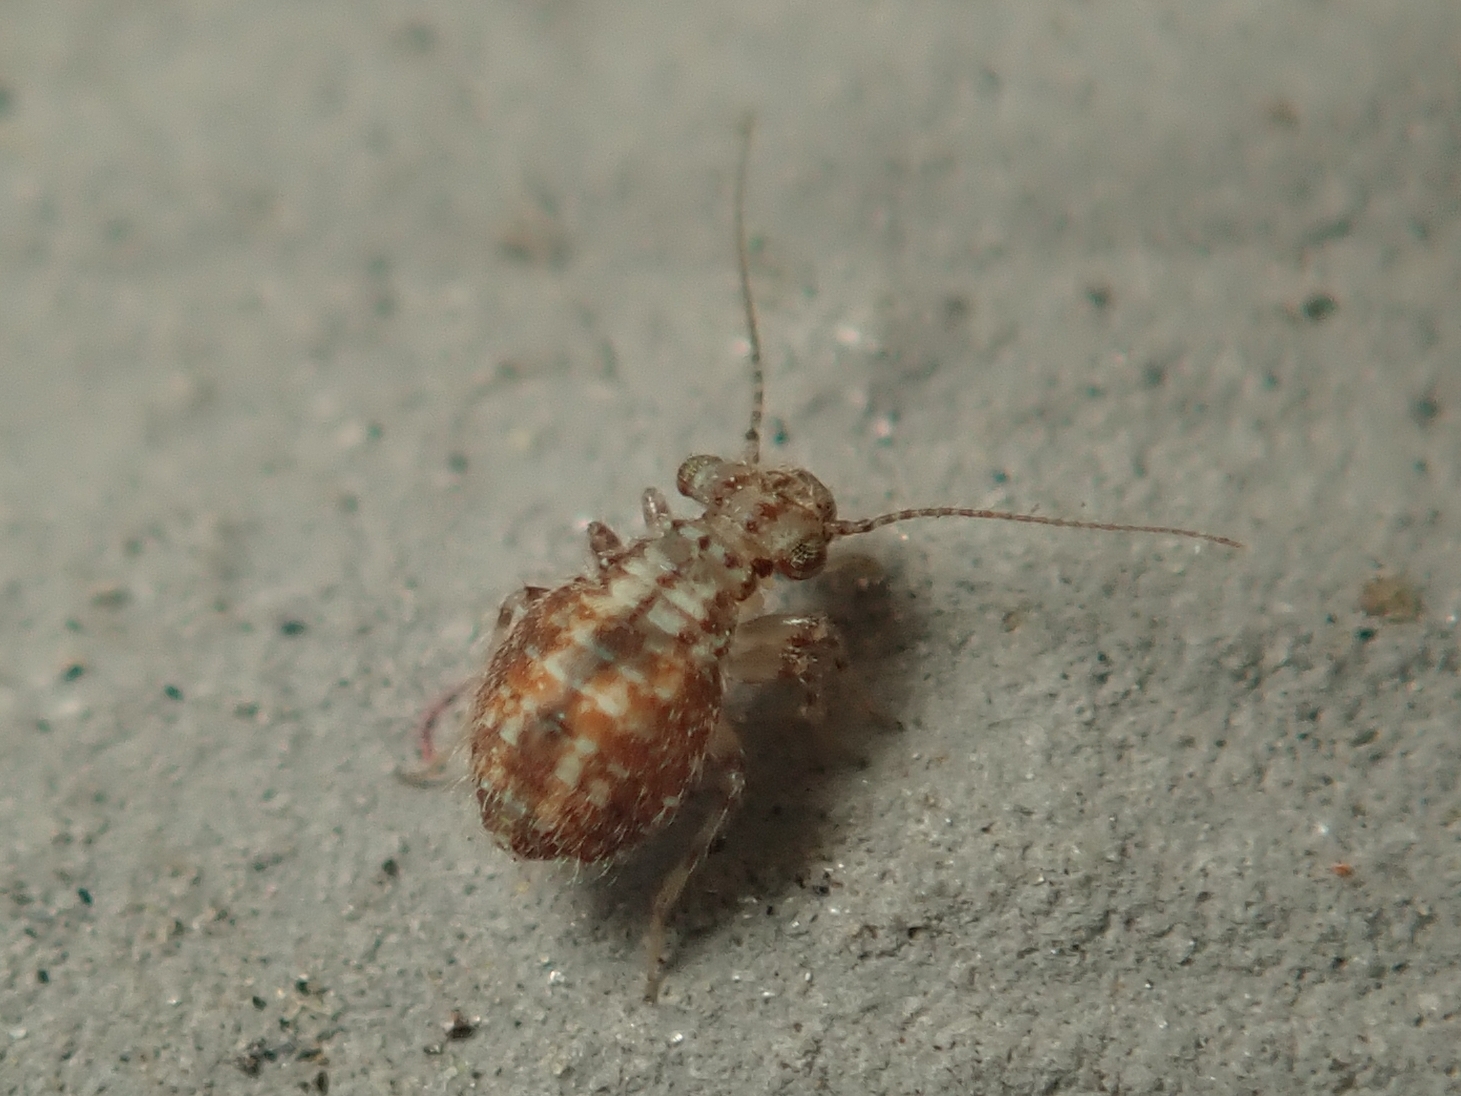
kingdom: Animalia
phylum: Arthropoda
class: Insecta
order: Psocodea
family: Trogiidae
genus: Cerobasis
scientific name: Cerobasis guestfalica
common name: Book lice
